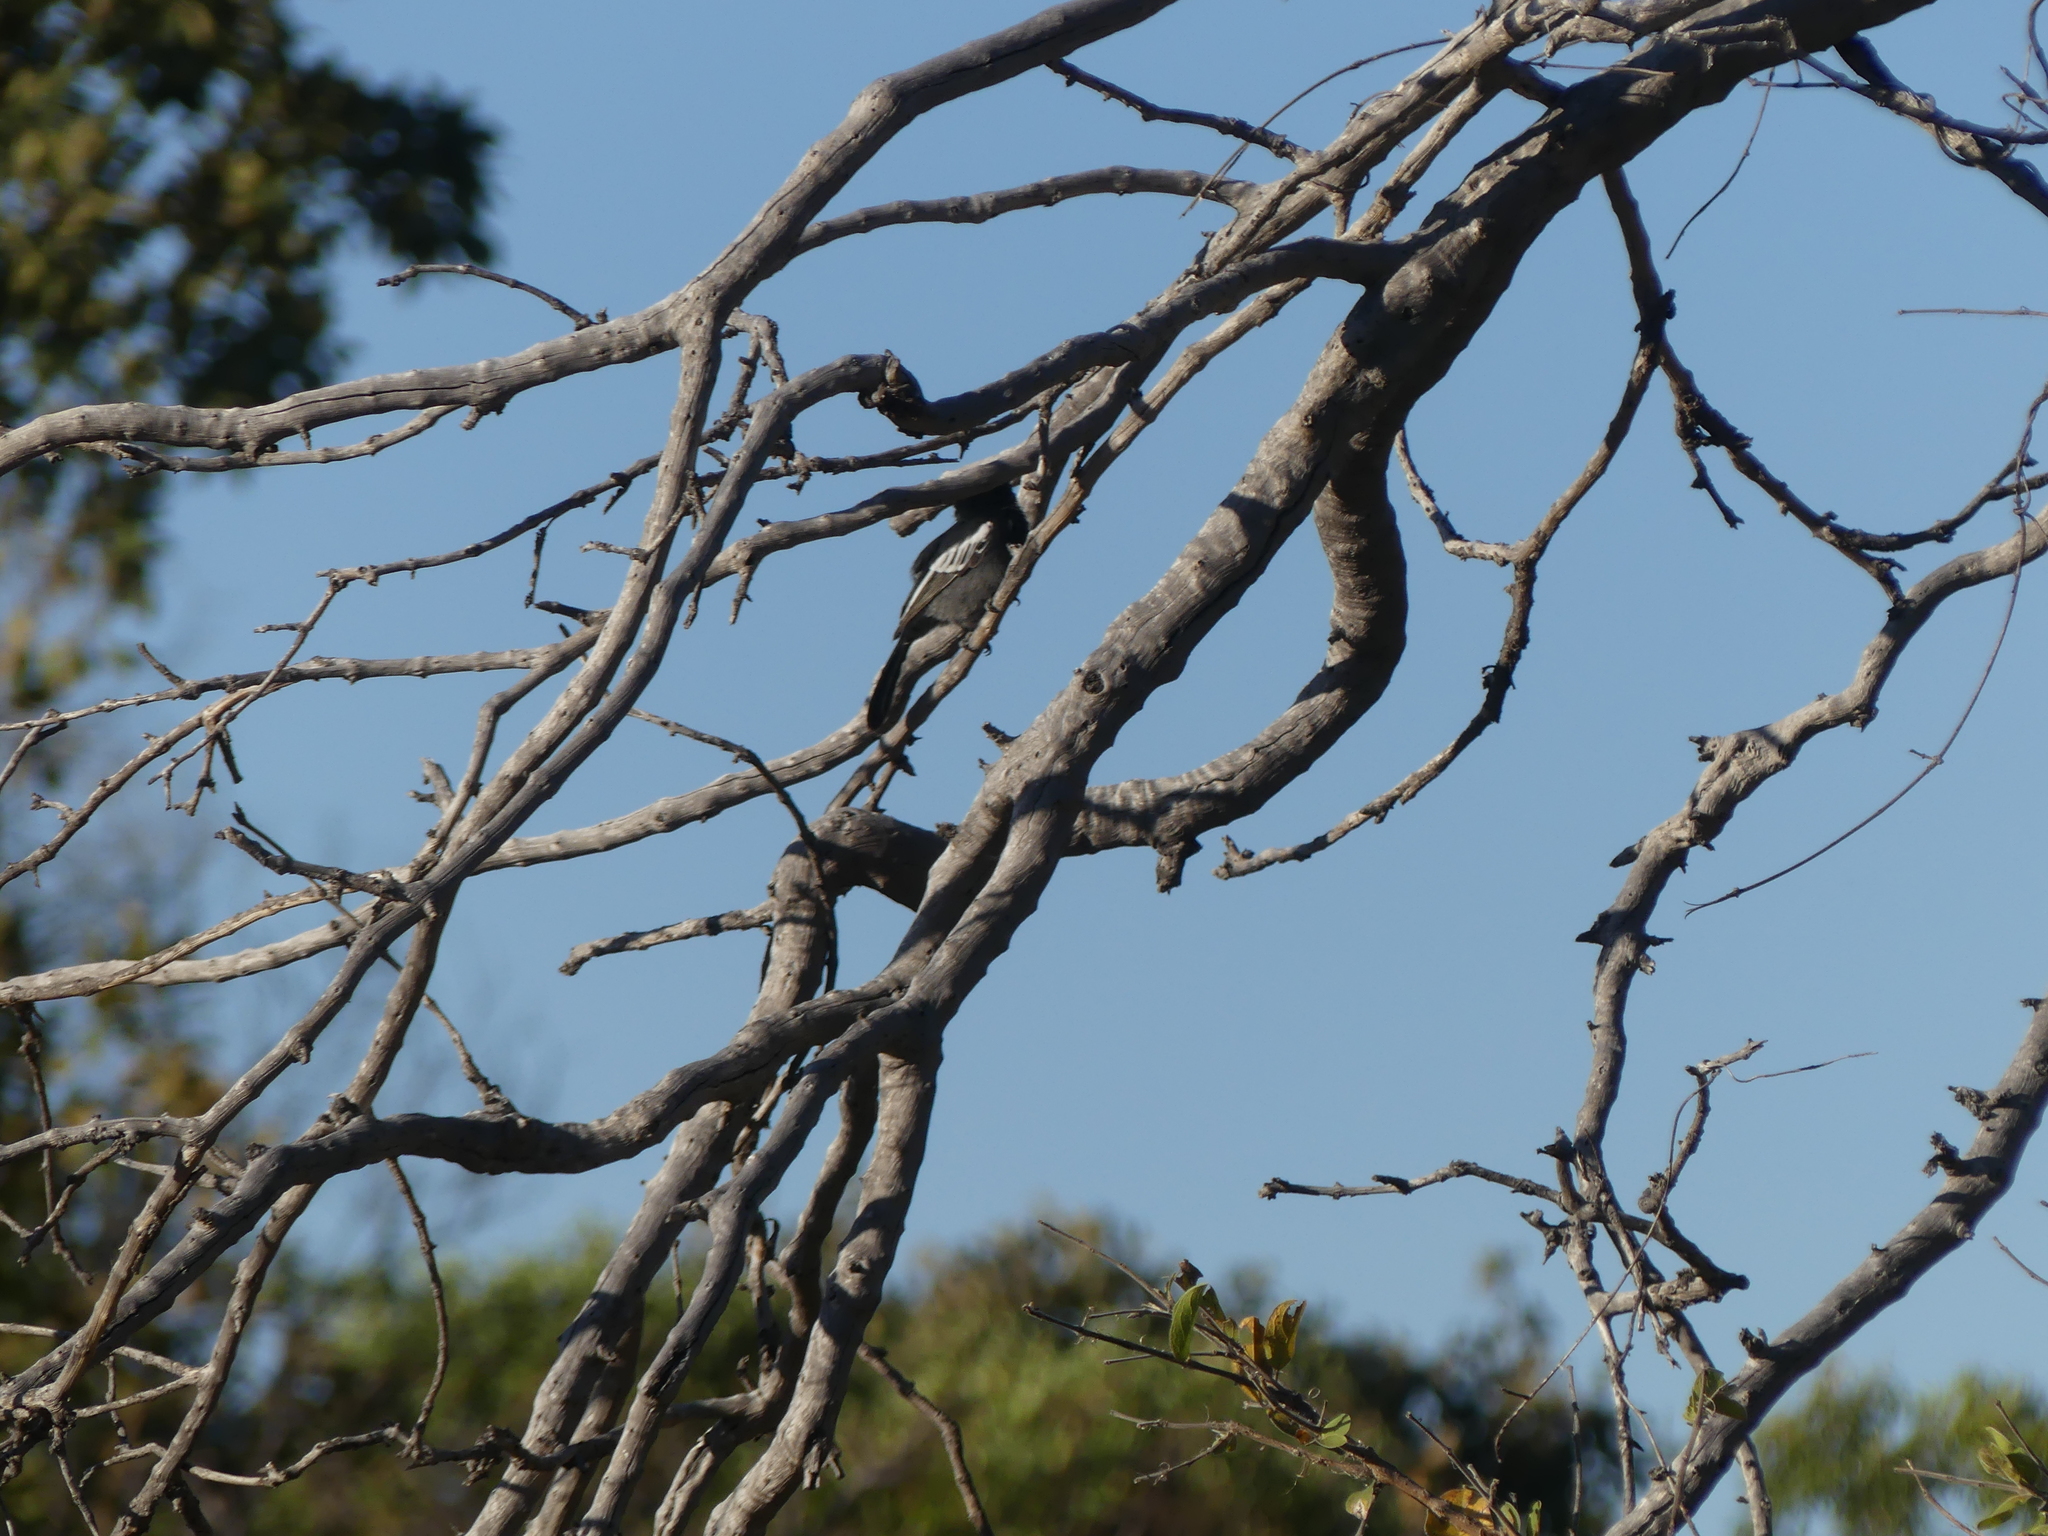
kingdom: Animalia
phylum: Chordata
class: Aves
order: Passeriformes
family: Paridae
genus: Parus
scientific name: Parus niger
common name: Southern black tit
